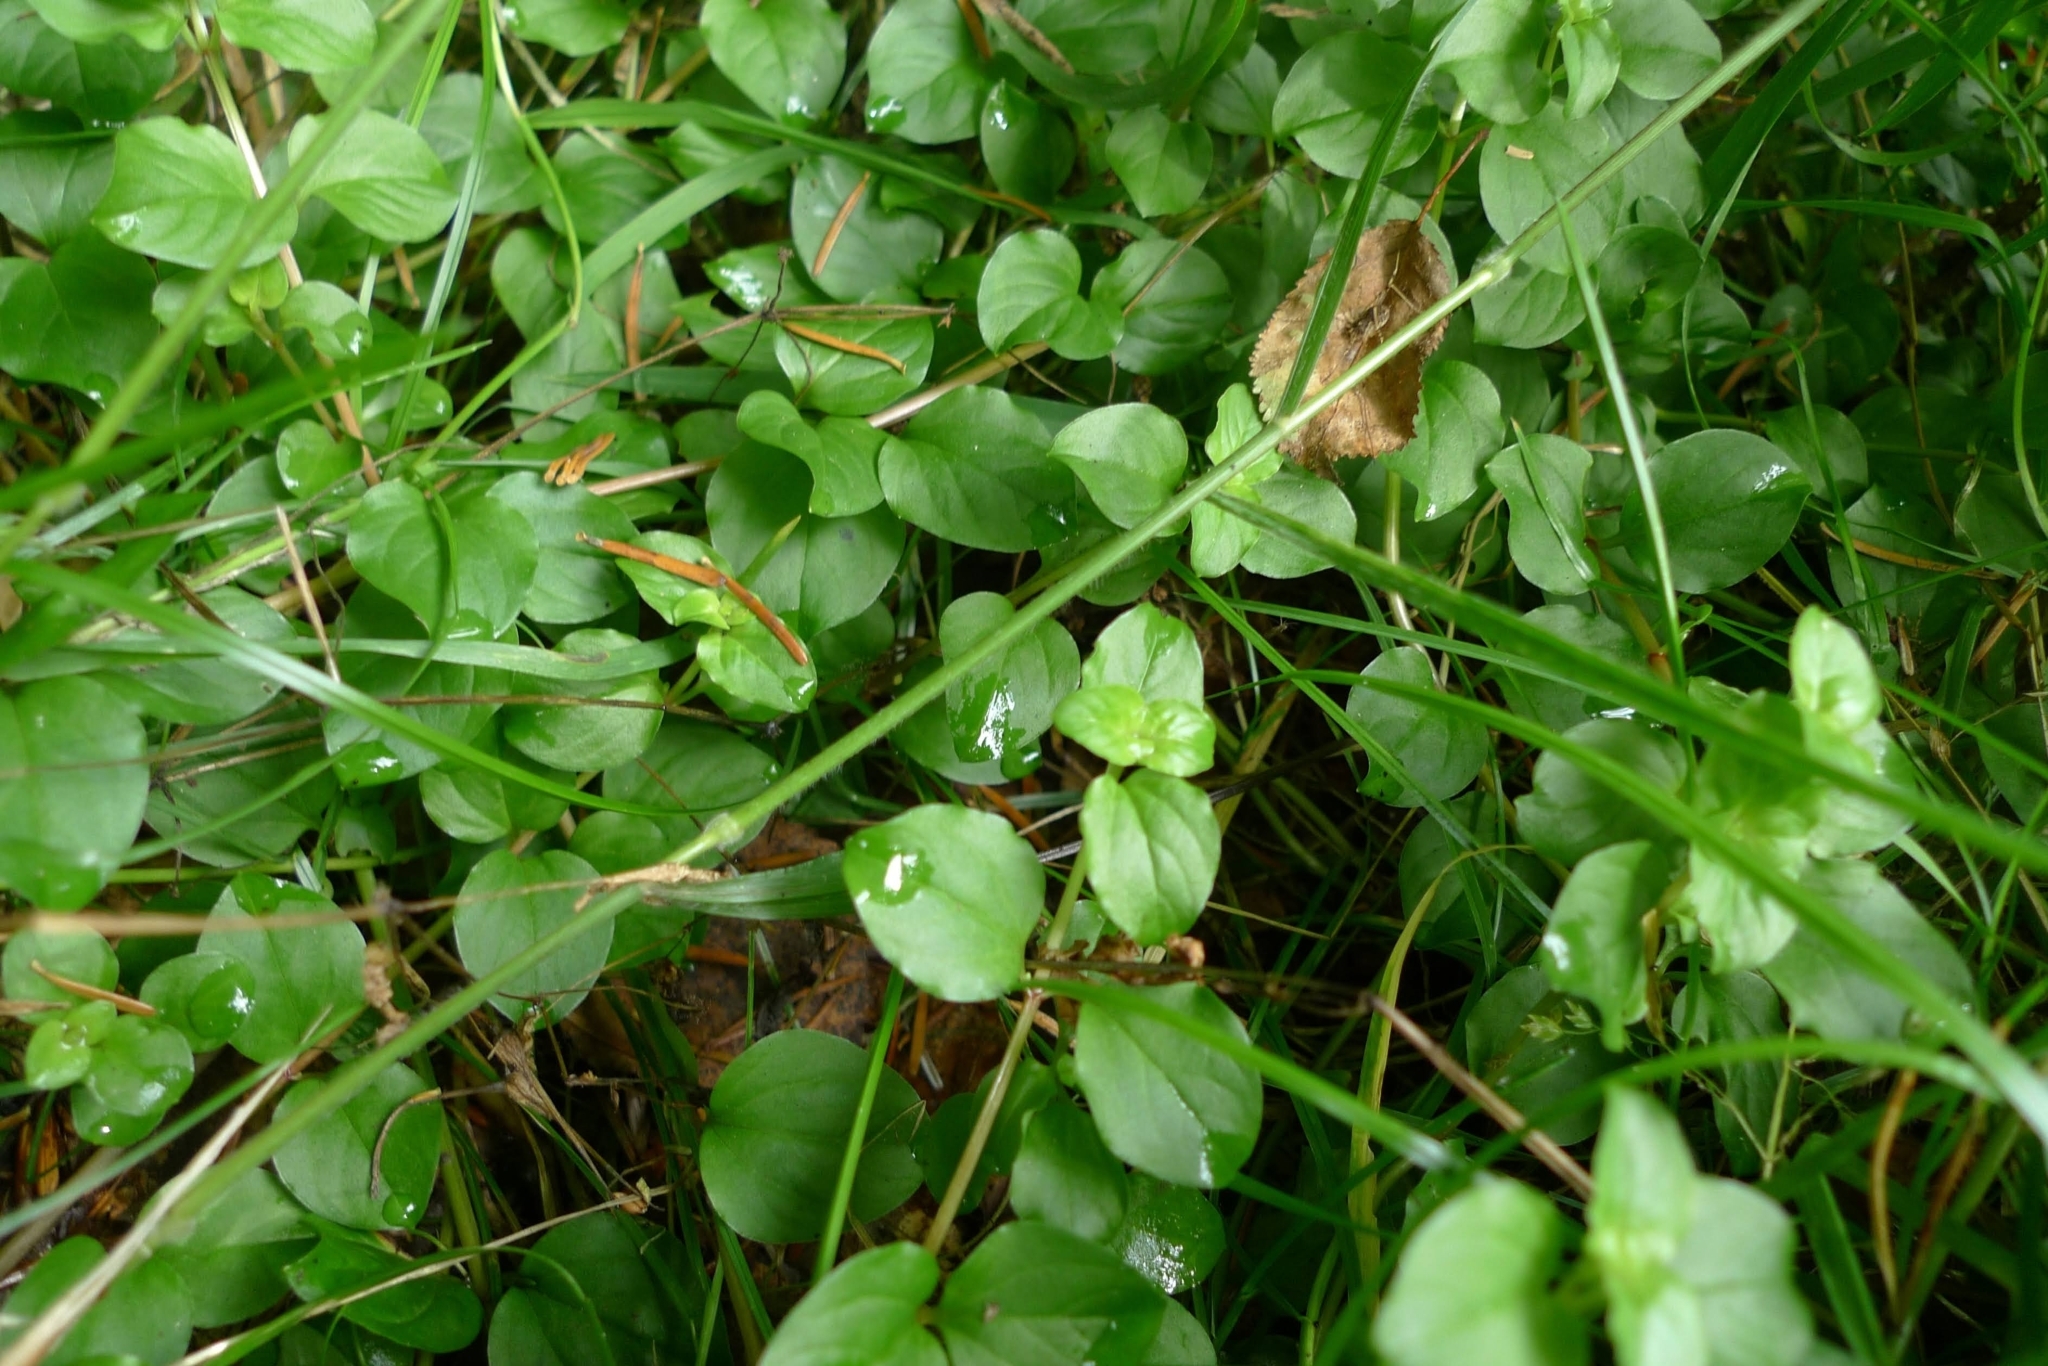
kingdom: Plantae
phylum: Tracheophyta
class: Magnoliopsida
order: Ericales
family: Primulaceae
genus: Lysimachia
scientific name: Lysimachia nemorum
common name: Yellow pimpernel
